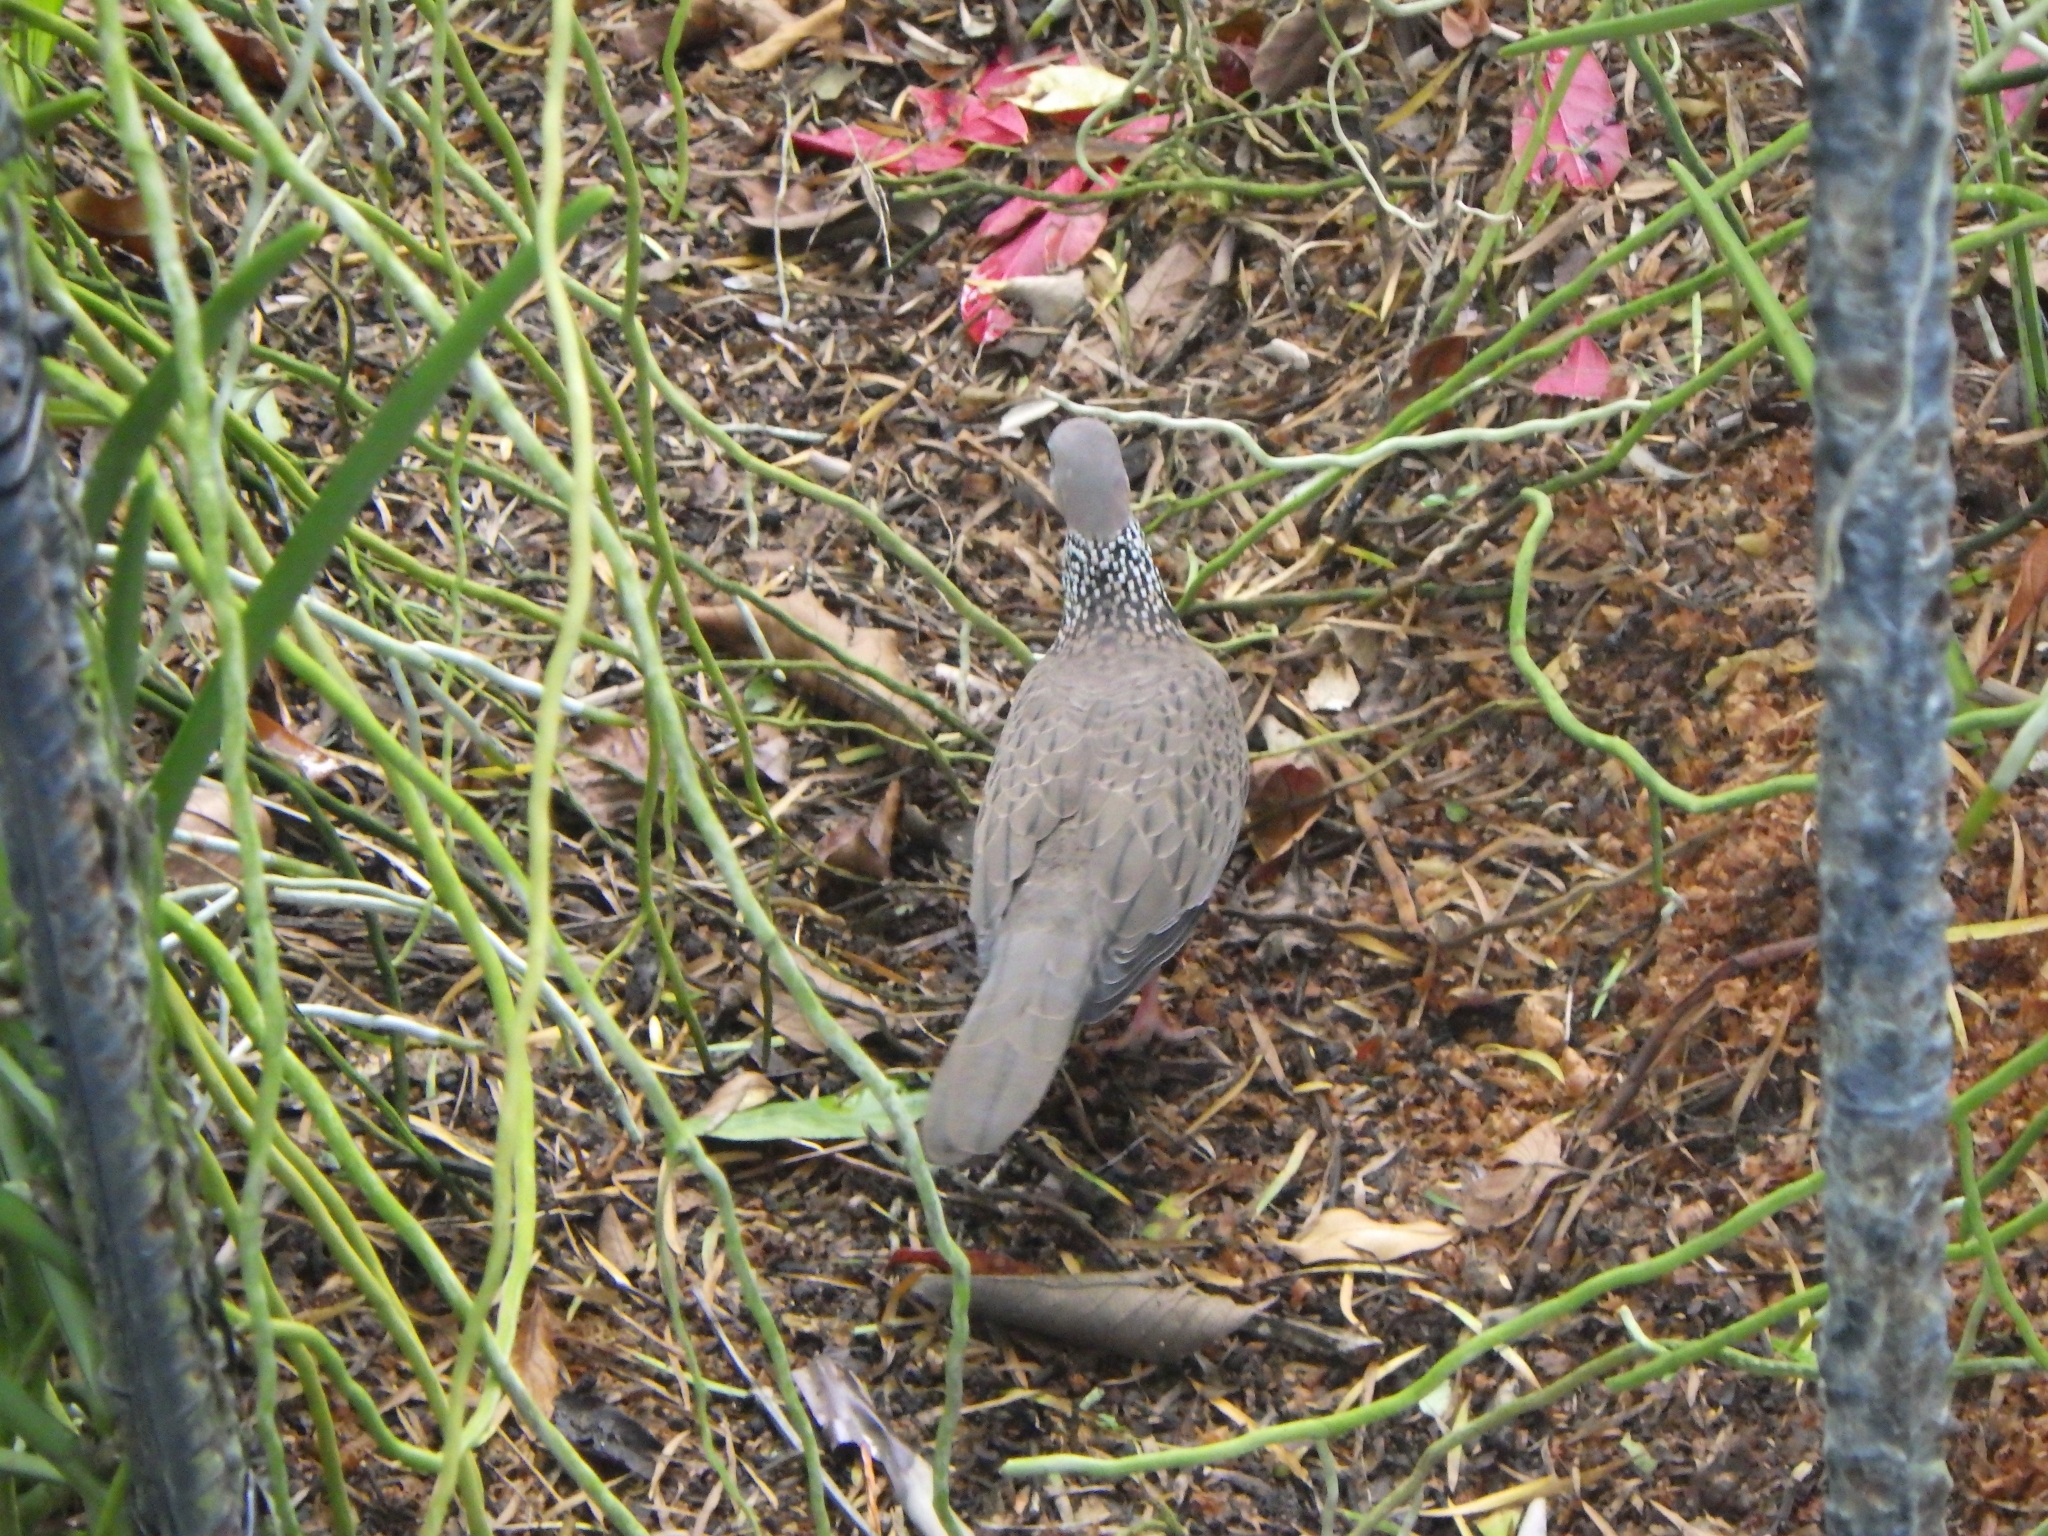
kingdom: Animalia
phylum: Chordata
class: Aves
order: Columbiformes
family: Columbidae
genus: Spilopelia
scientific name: Spilopelia chinensis
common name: Spotted dove
